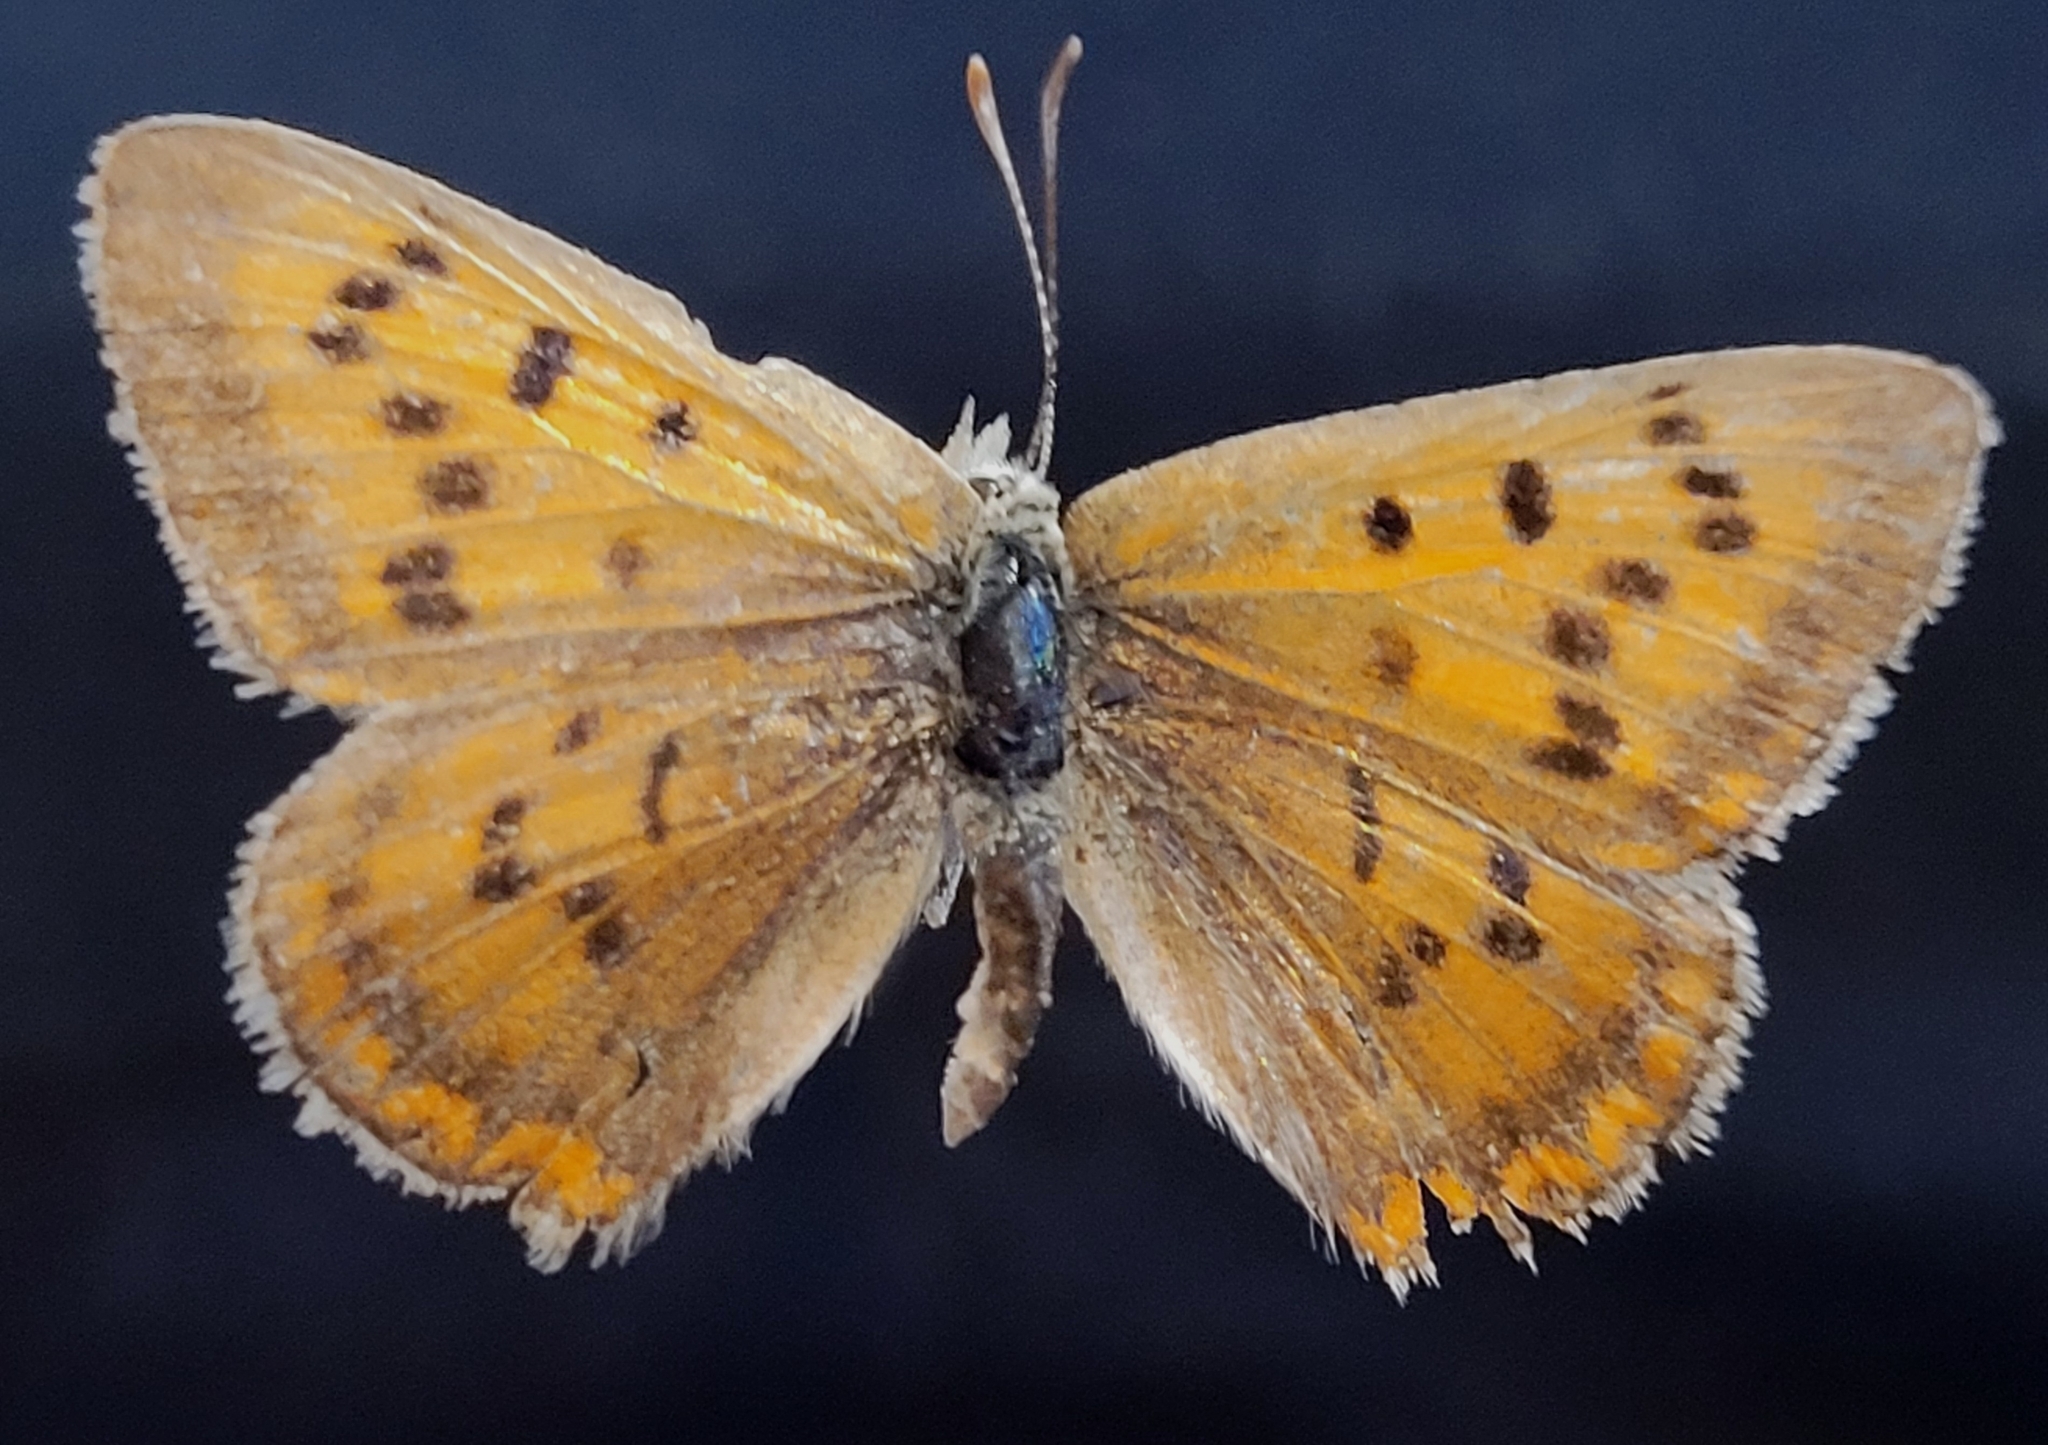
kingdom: Animalia
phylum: Arthropoda
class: Insecta
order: Lepidoptera
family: Lycaenidae
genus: Tharsalea
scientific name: Tharsalea rubidus
